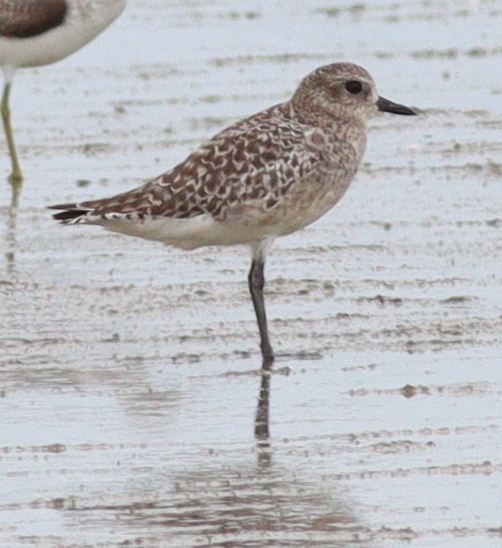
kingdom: Animalia
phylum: Chordata
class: Aves
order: Charadriiformes
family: Charadriidae
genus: Pluvialis
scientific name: Pluvialis squatarola
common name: Grey plover
